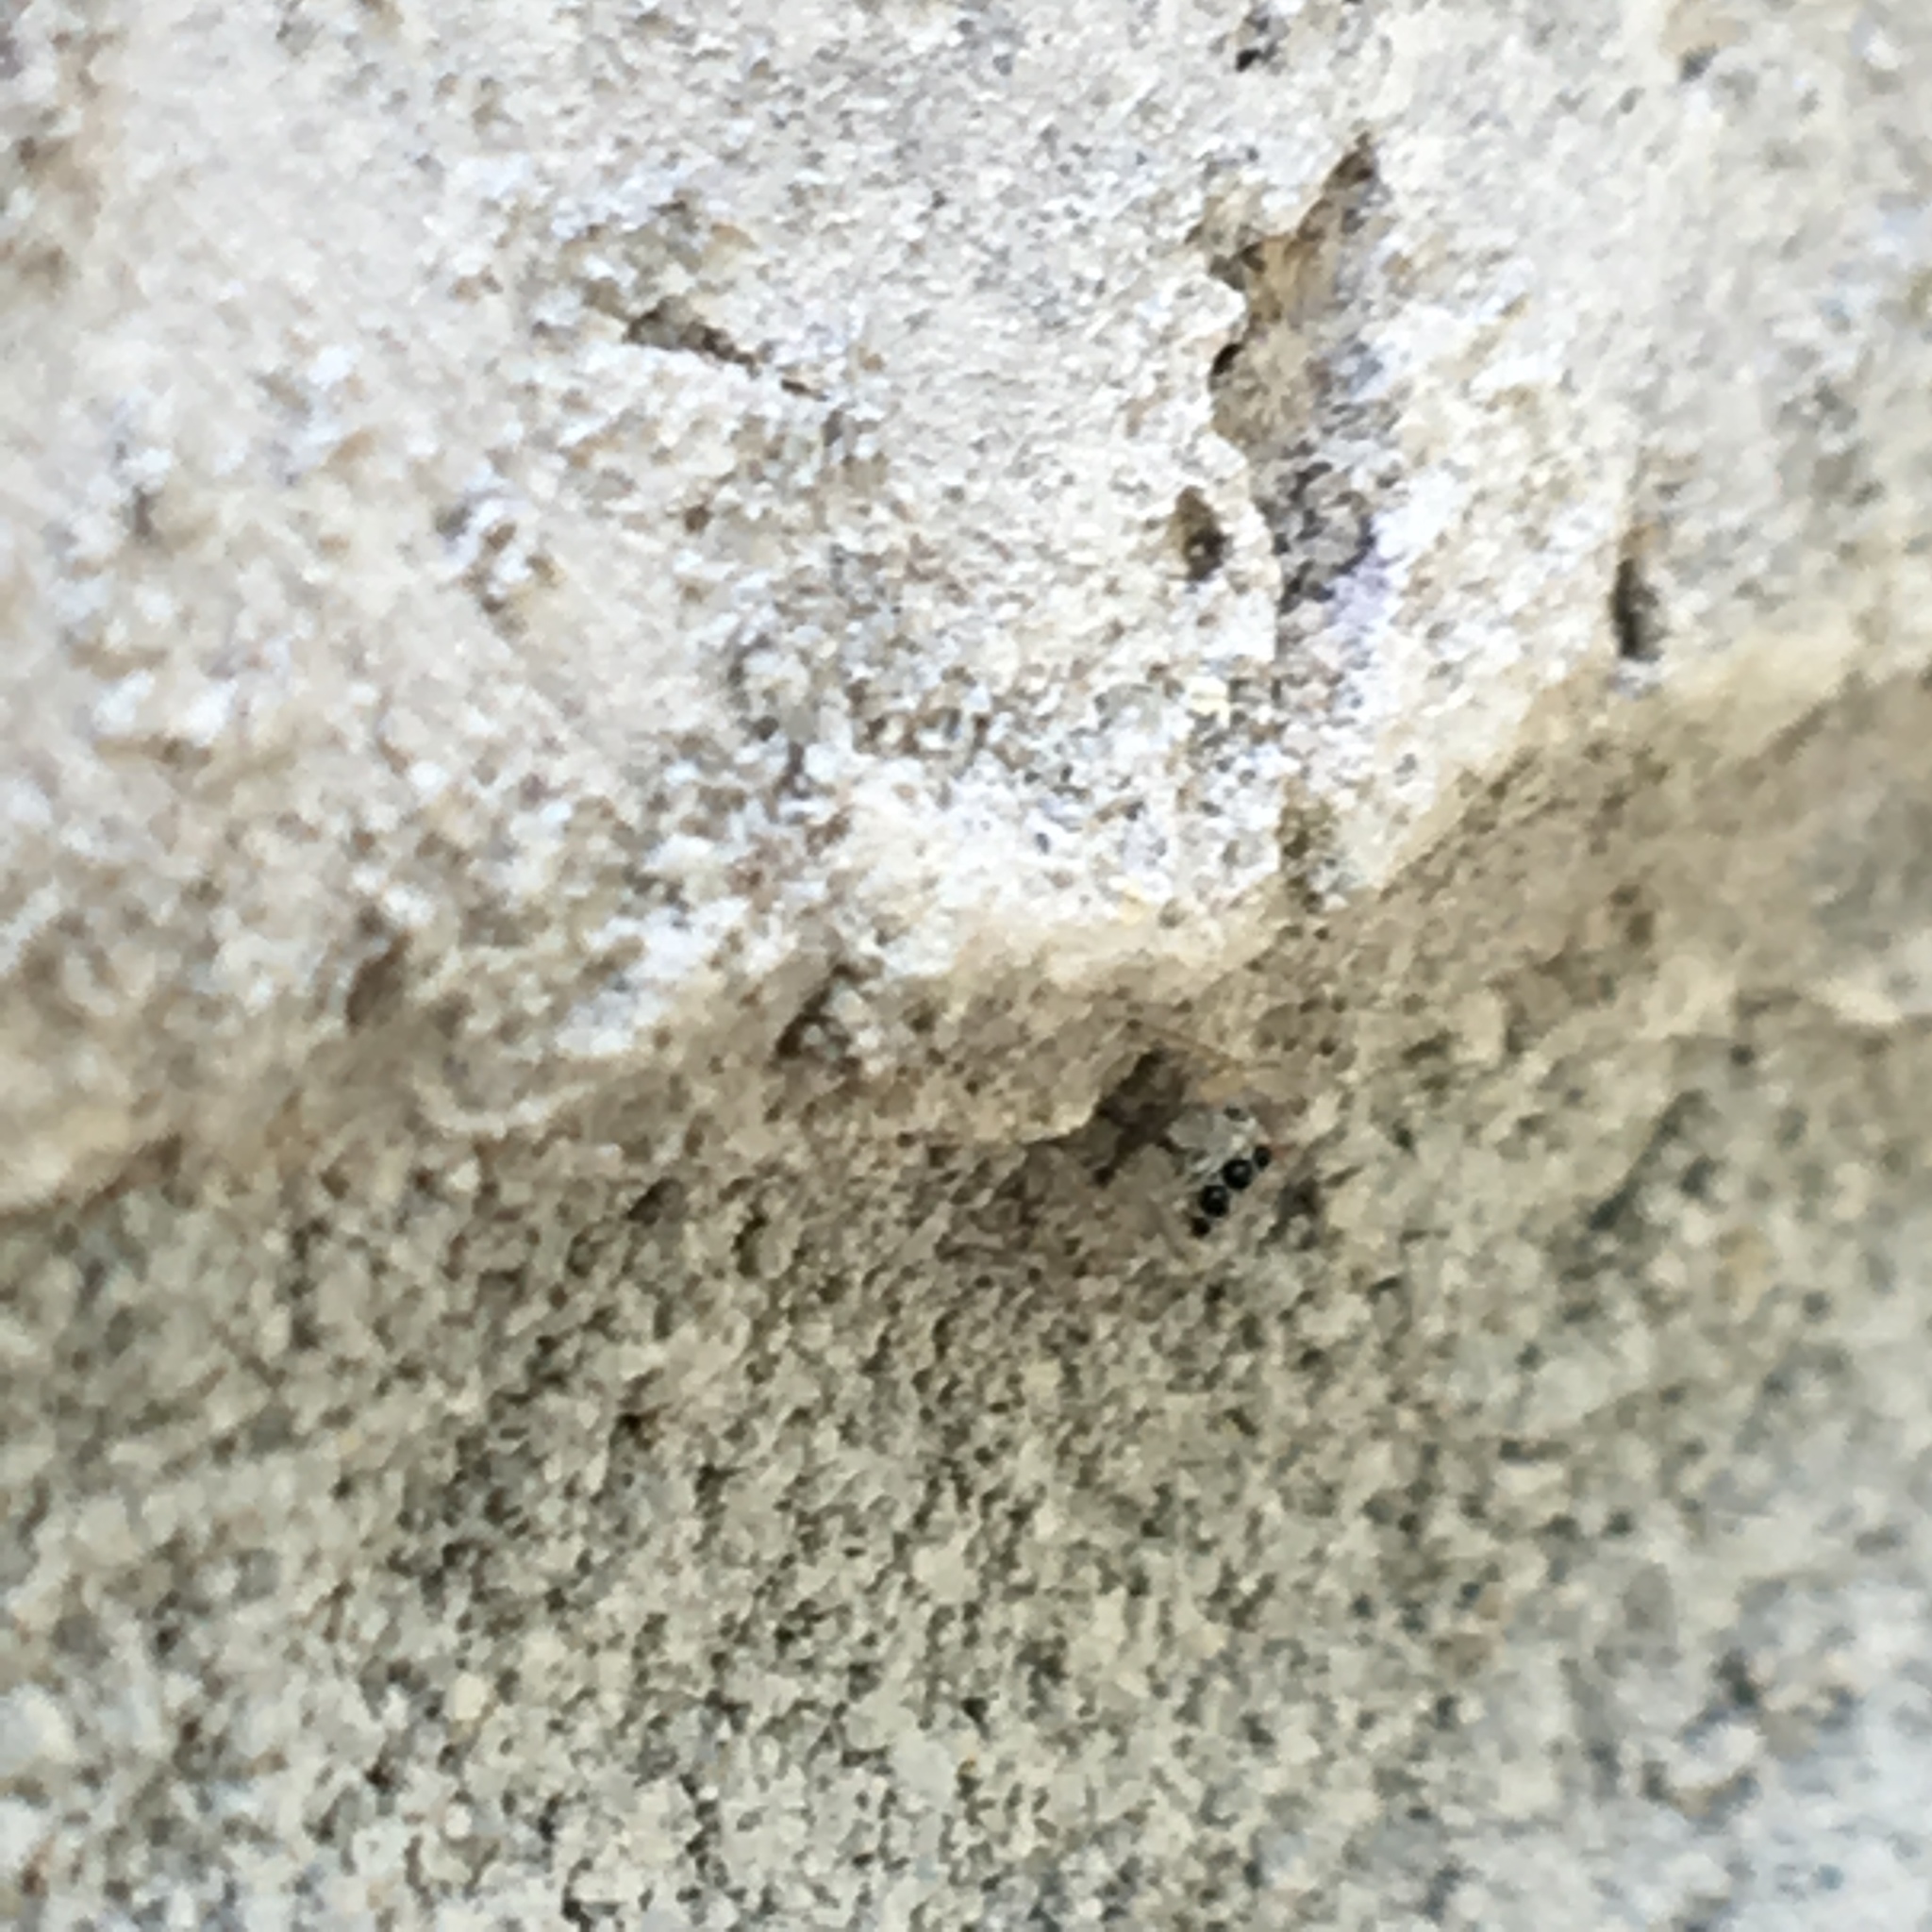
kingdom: Animalia
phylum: Arthropoda
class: Arachnida
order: Araneae
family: Salticidae
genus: Menemerus
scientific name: Menemerus bivittatus
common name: Gray wall jumper
